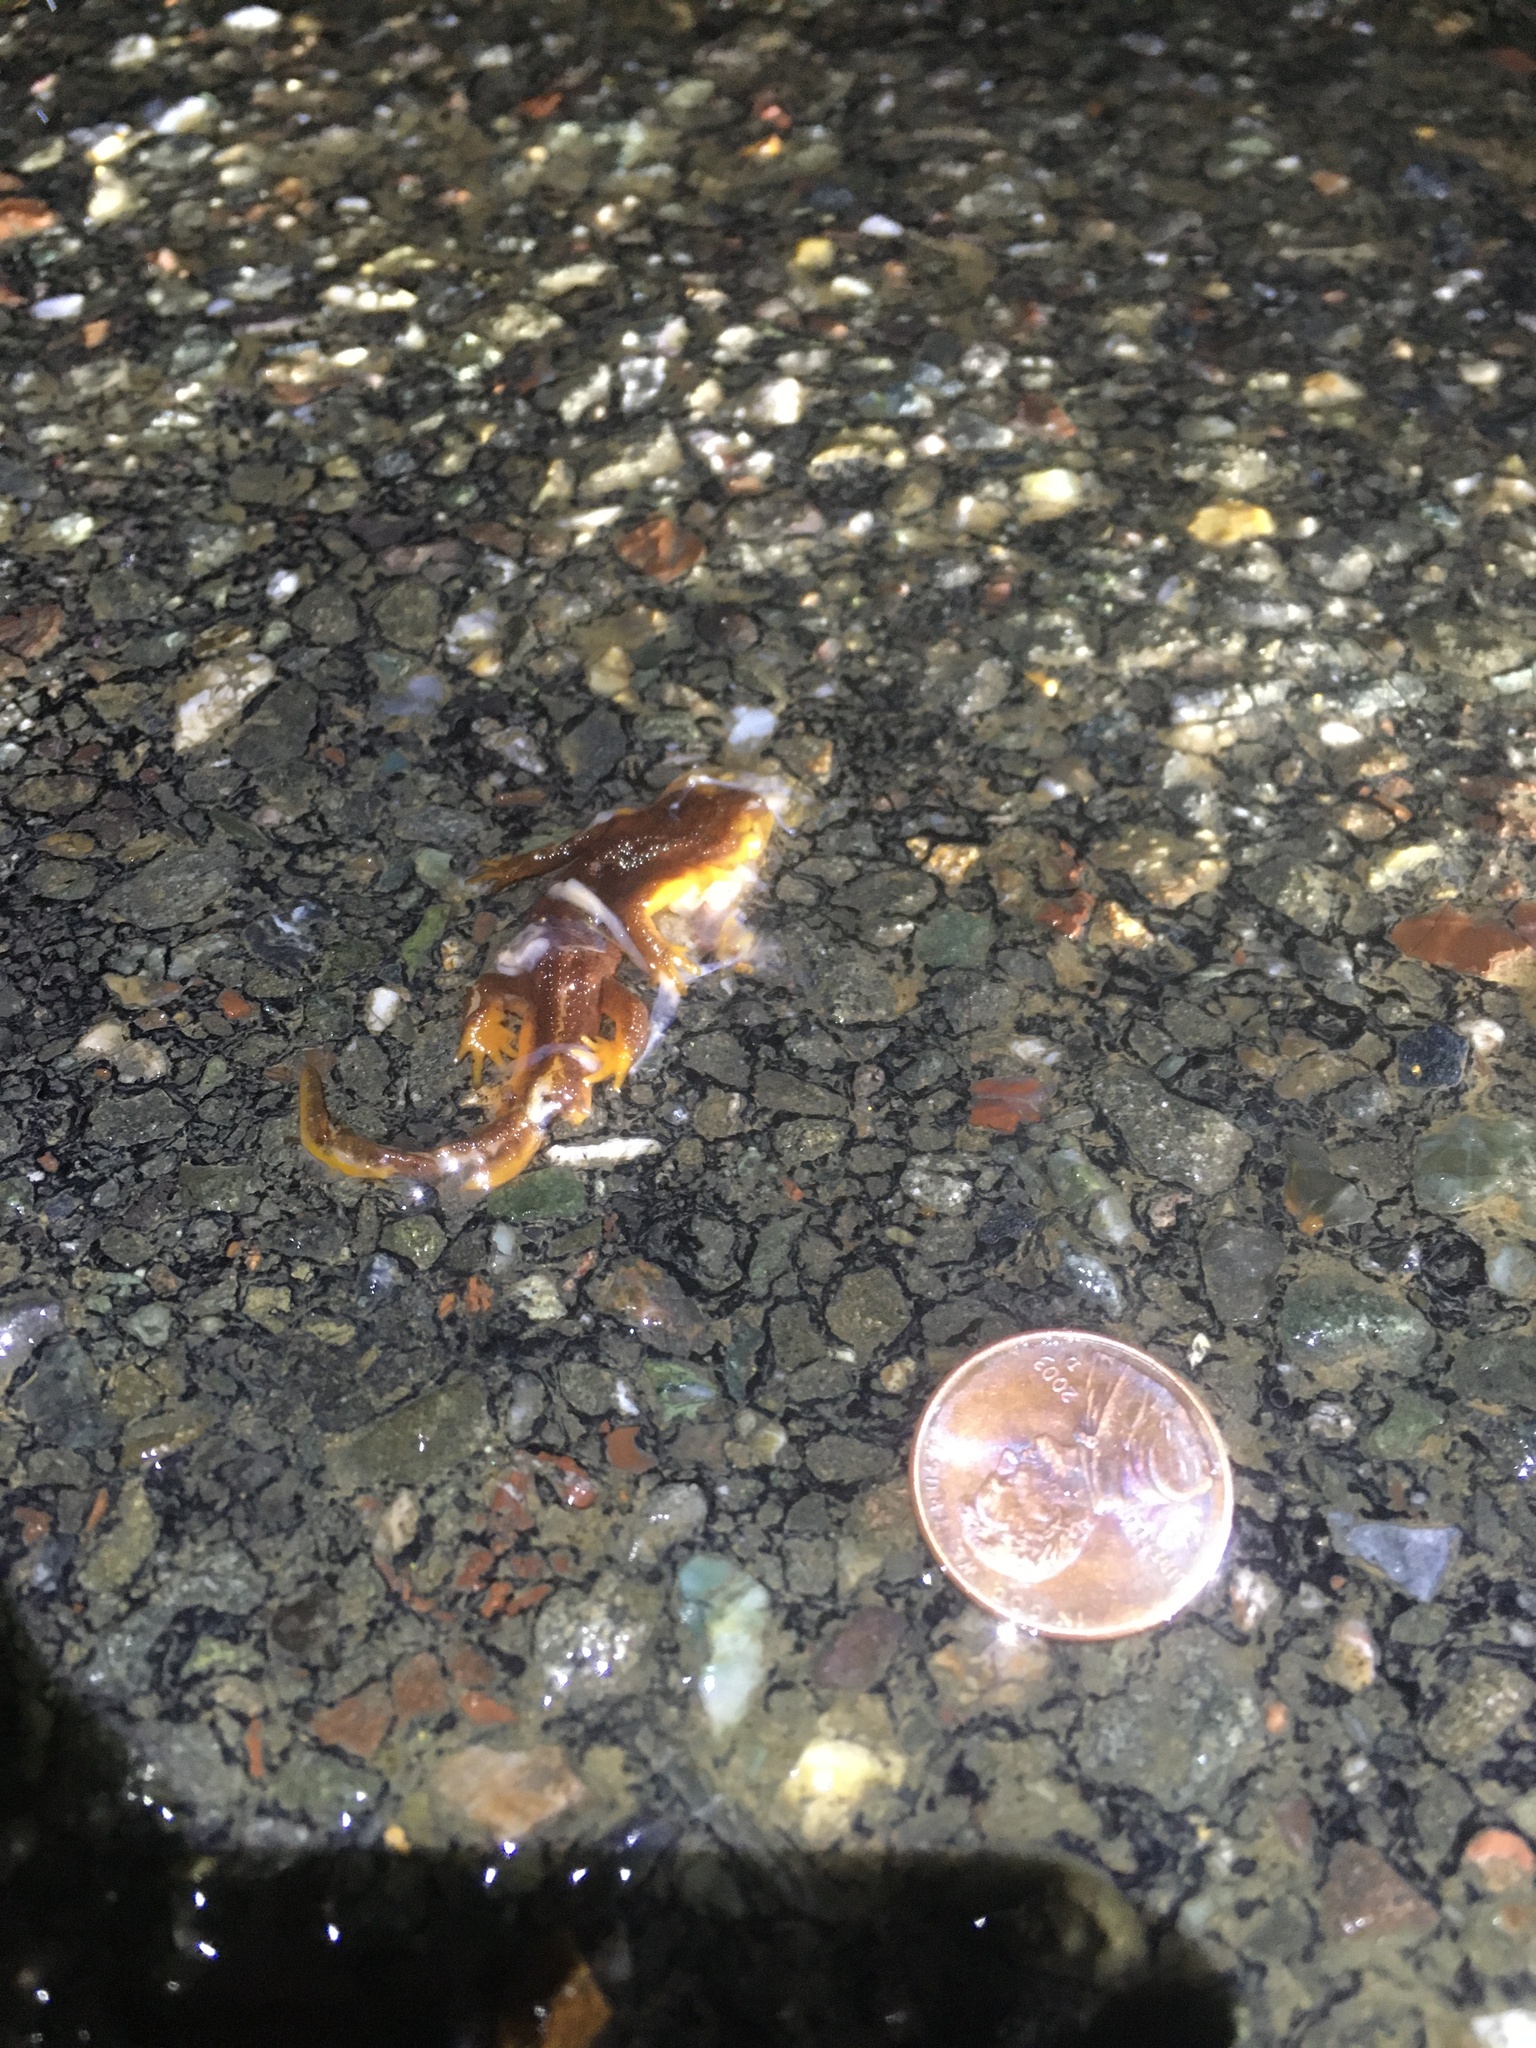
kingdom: Animalia
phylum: Chordata
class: Amphibia
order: Caudata
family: Salamandridae
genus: Taricha
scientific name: Taricha
